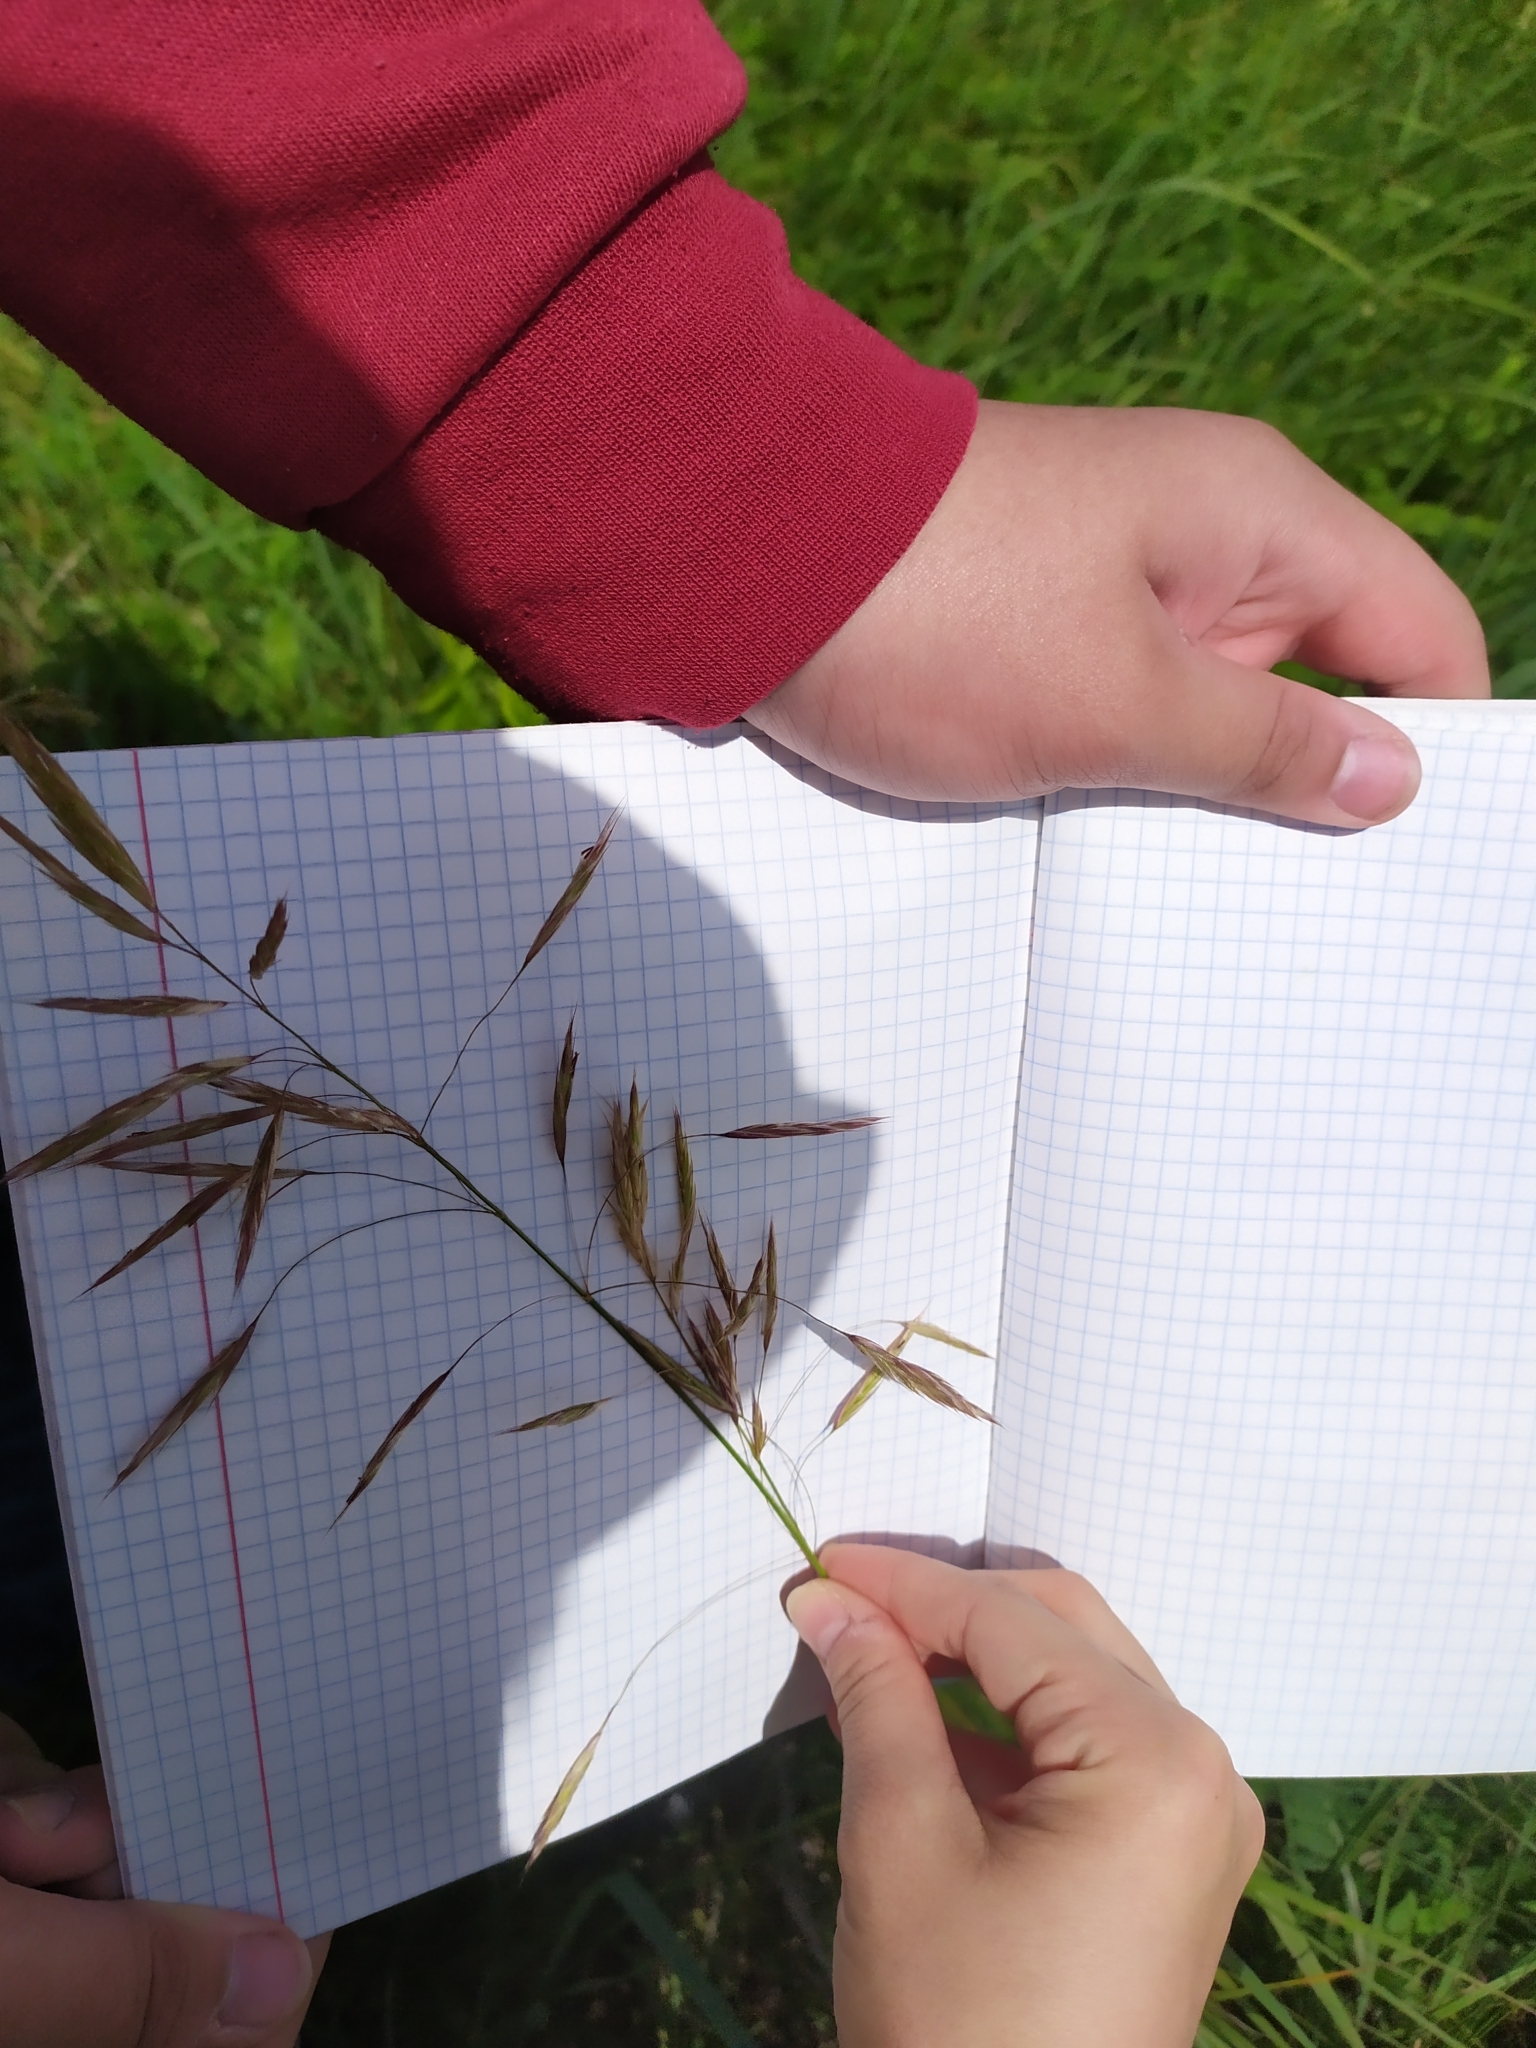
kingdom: Plantae
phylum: Tracheophyta
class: Liliopsida
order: Poales
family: Poaceae
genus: Bromus
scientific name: Bromus inermis
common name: Smooth brome
